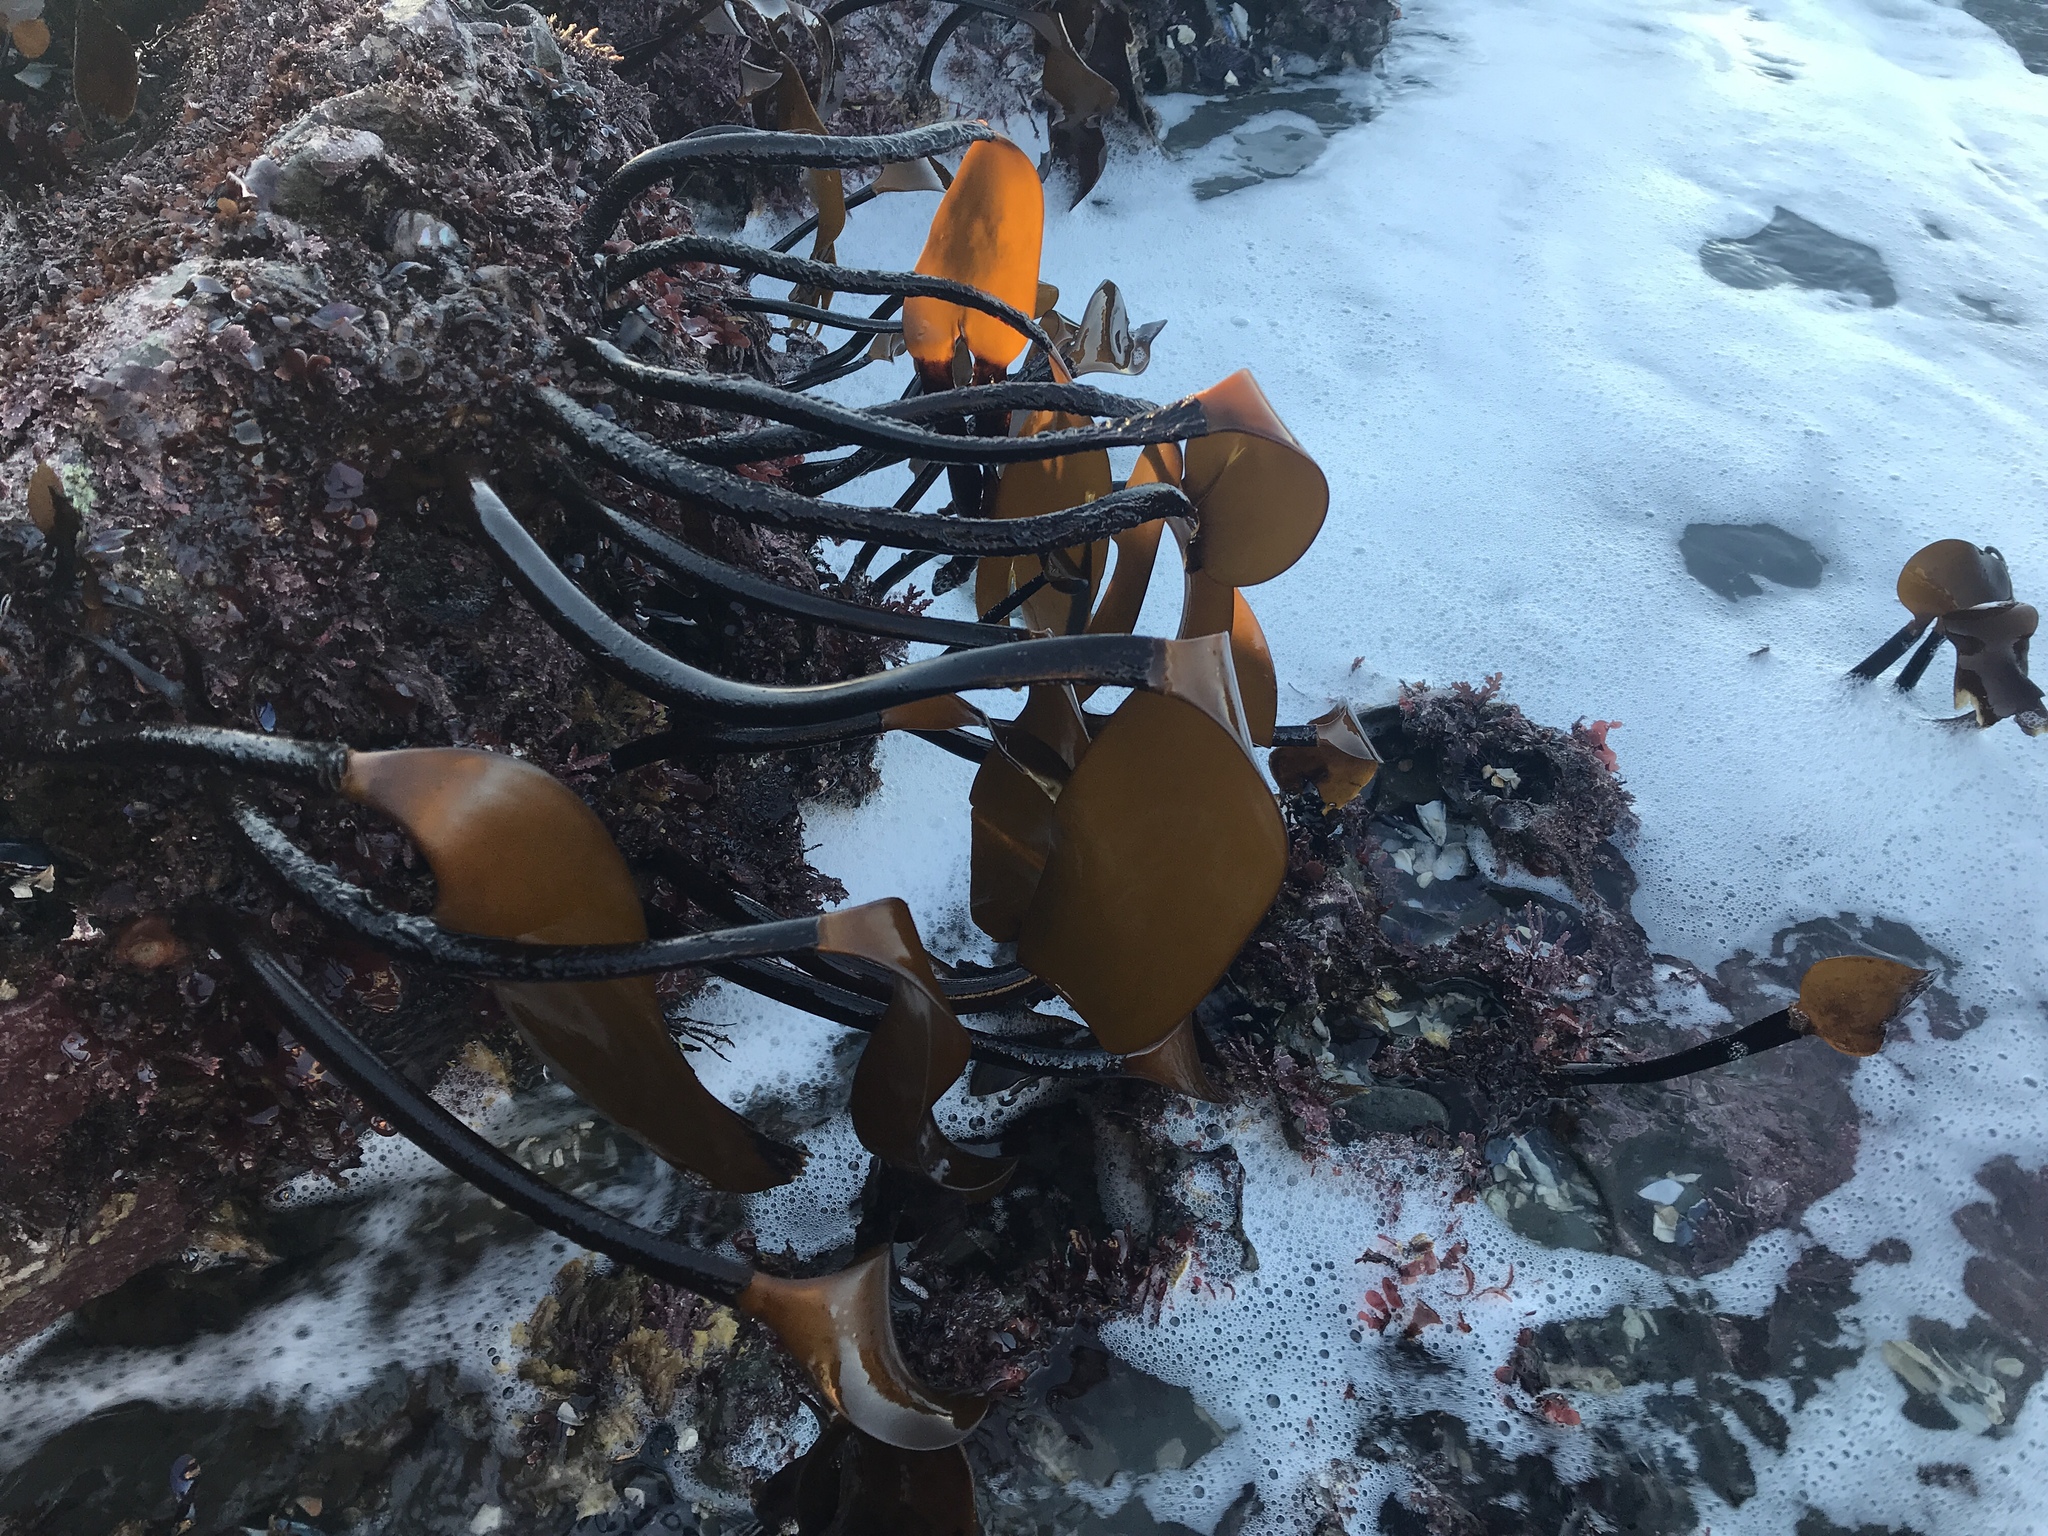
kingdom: Chromista
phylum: Ochrophyta
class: Phaeophyceae
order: Laminariales
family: Laminariaceae
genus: Laminaria
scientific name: Laminaria setchellii
